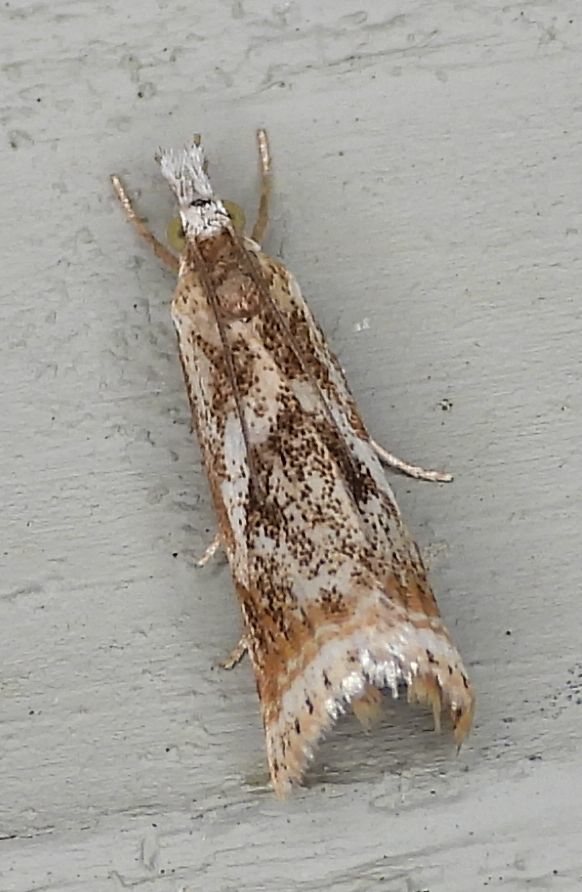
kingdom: Animalia
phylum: Arthropoda
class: Insecta
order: Lepidoptera
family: Crambidae
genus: Microcrambus
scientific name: Microcrambus elegans
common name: Elegant grass-veneer
